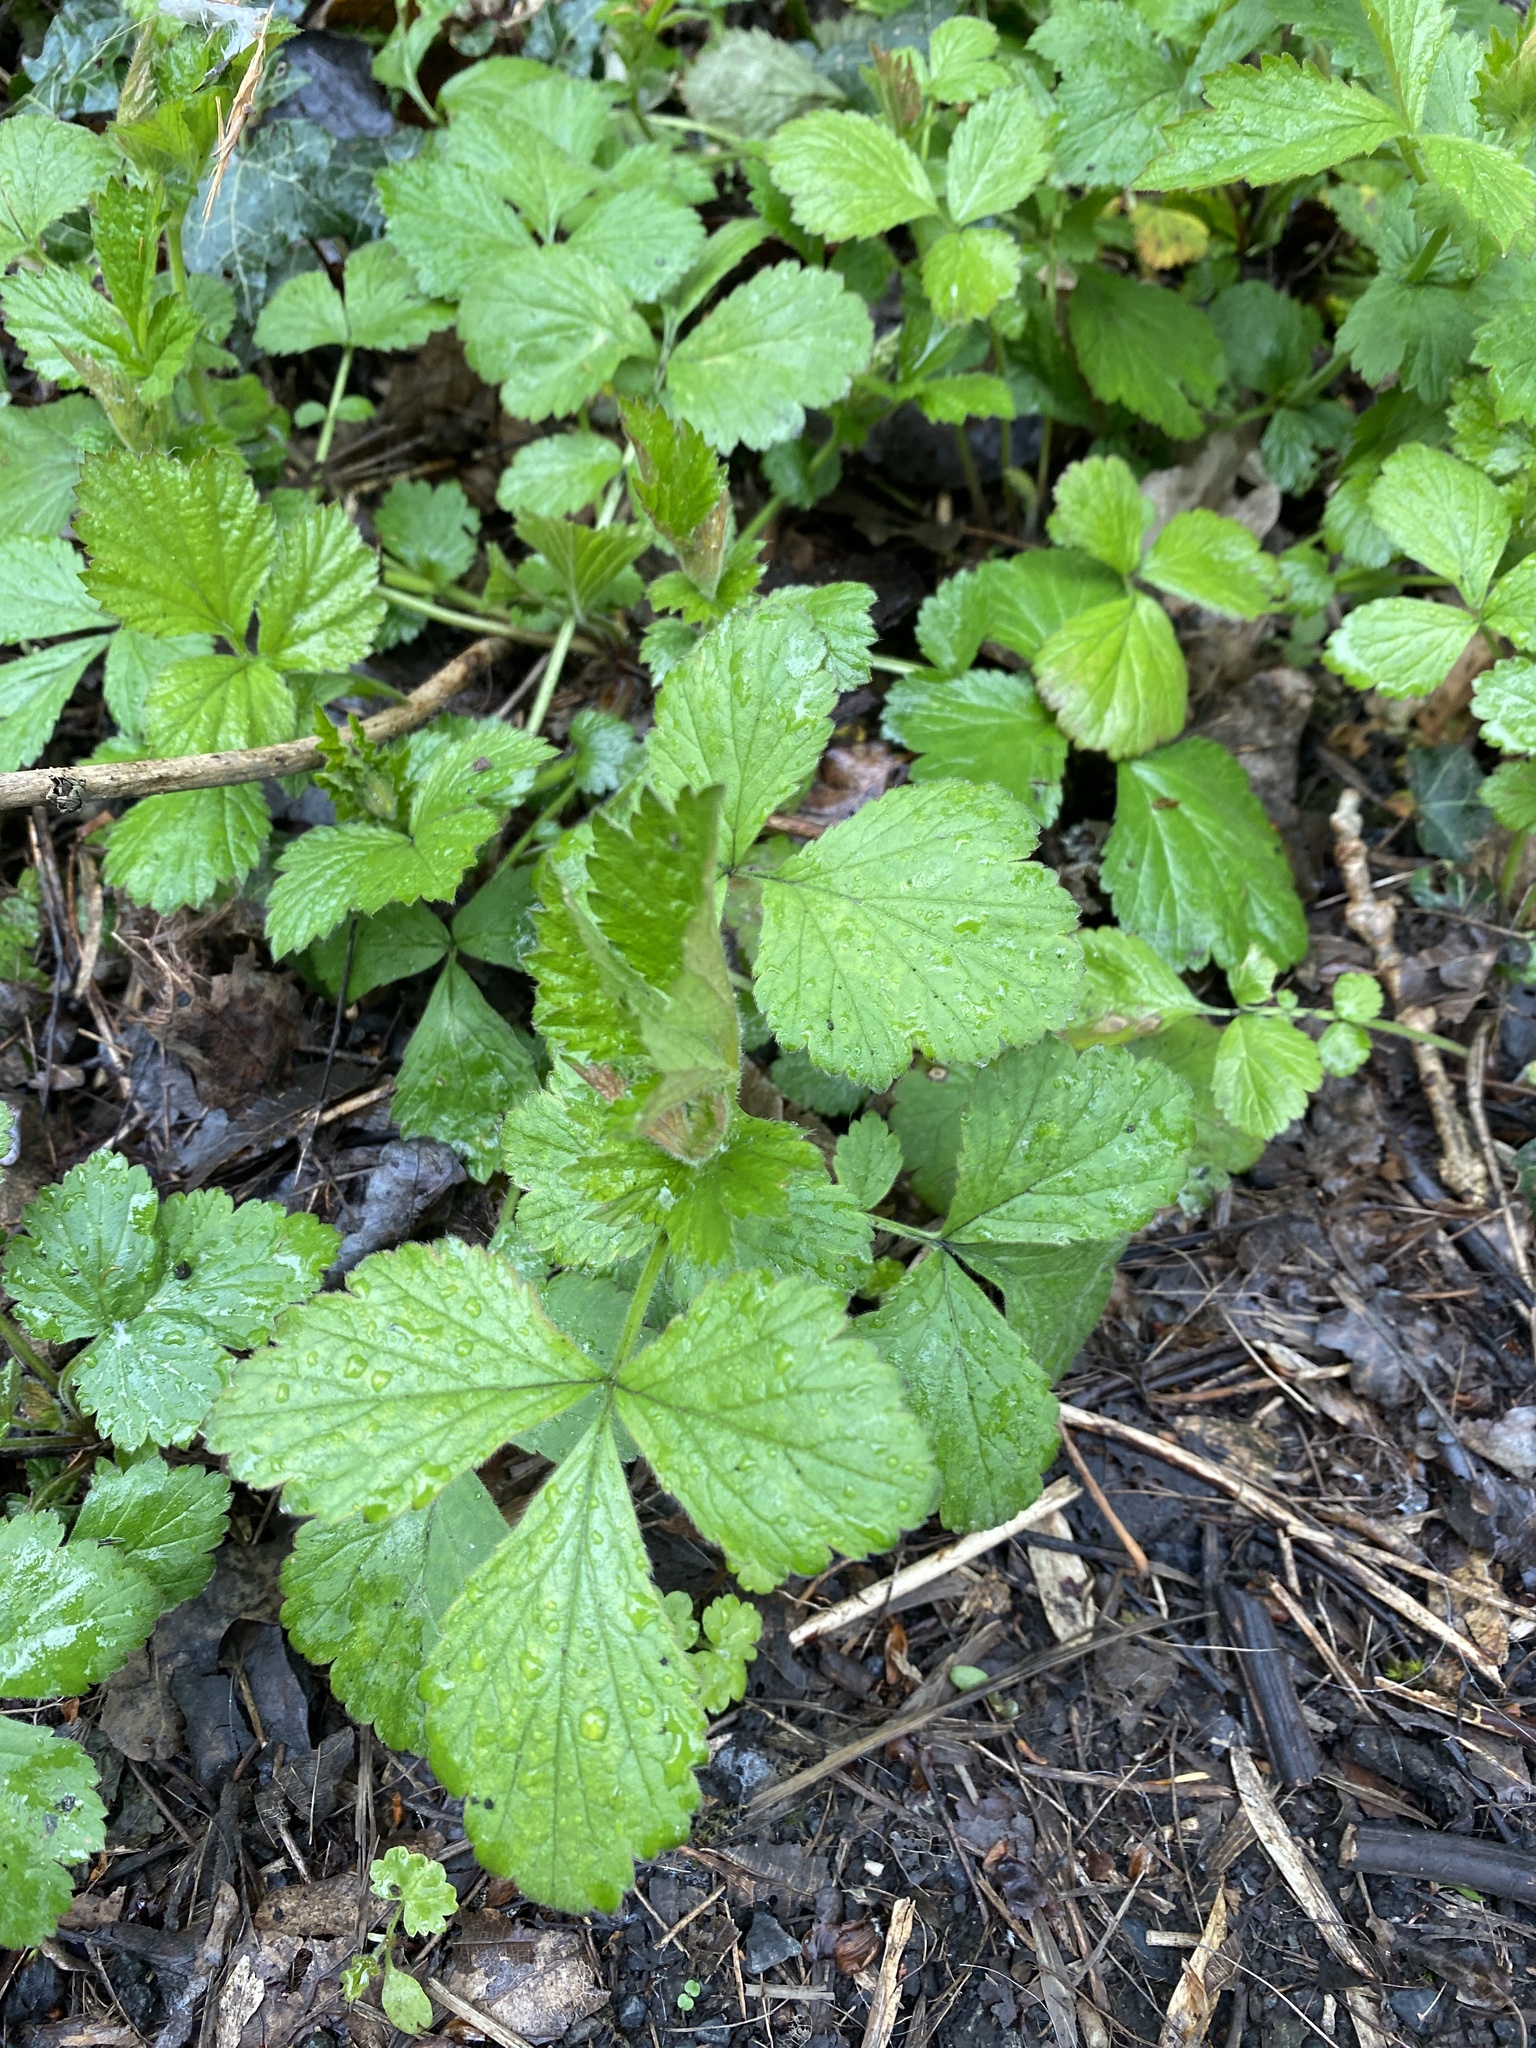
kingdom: Plantae
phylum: Tracheophyta
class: Magnoliopsida
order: Rosales
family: Rosaceae
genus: Geum
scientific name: Geum urbanum
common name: Wood avens
